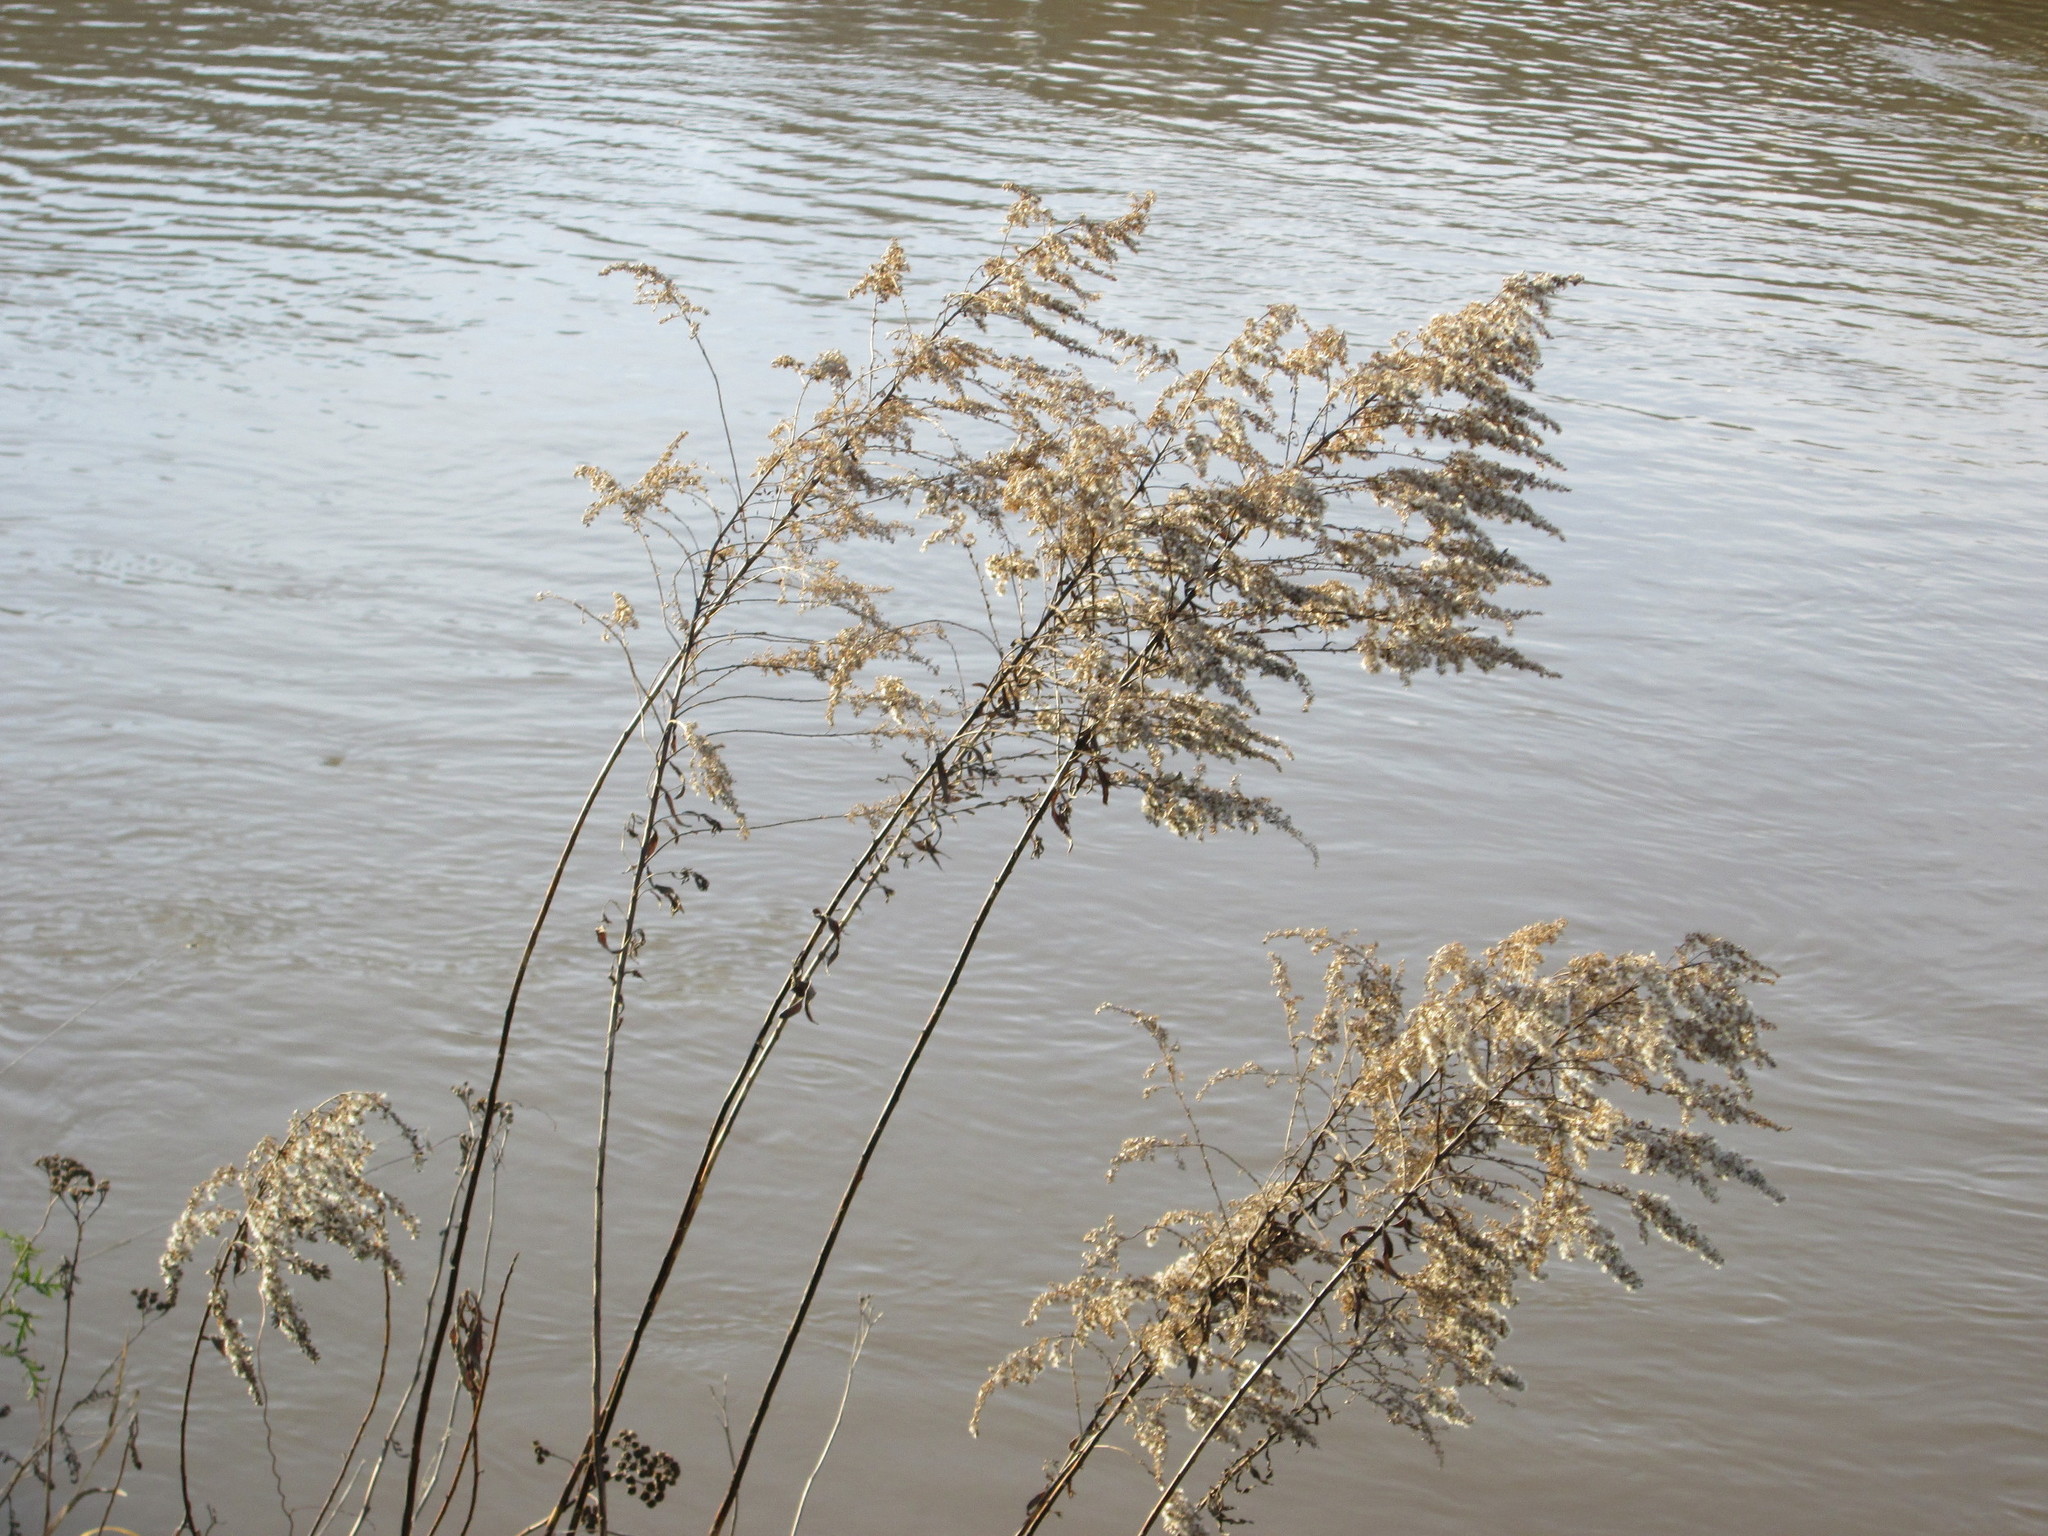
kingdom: Plantae
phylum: Tracheophyta
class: Magnoliopsida
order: Asterales
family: Asteraceae
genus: Solidago
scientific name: Solidago canadensis
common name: Canada goldenrod
